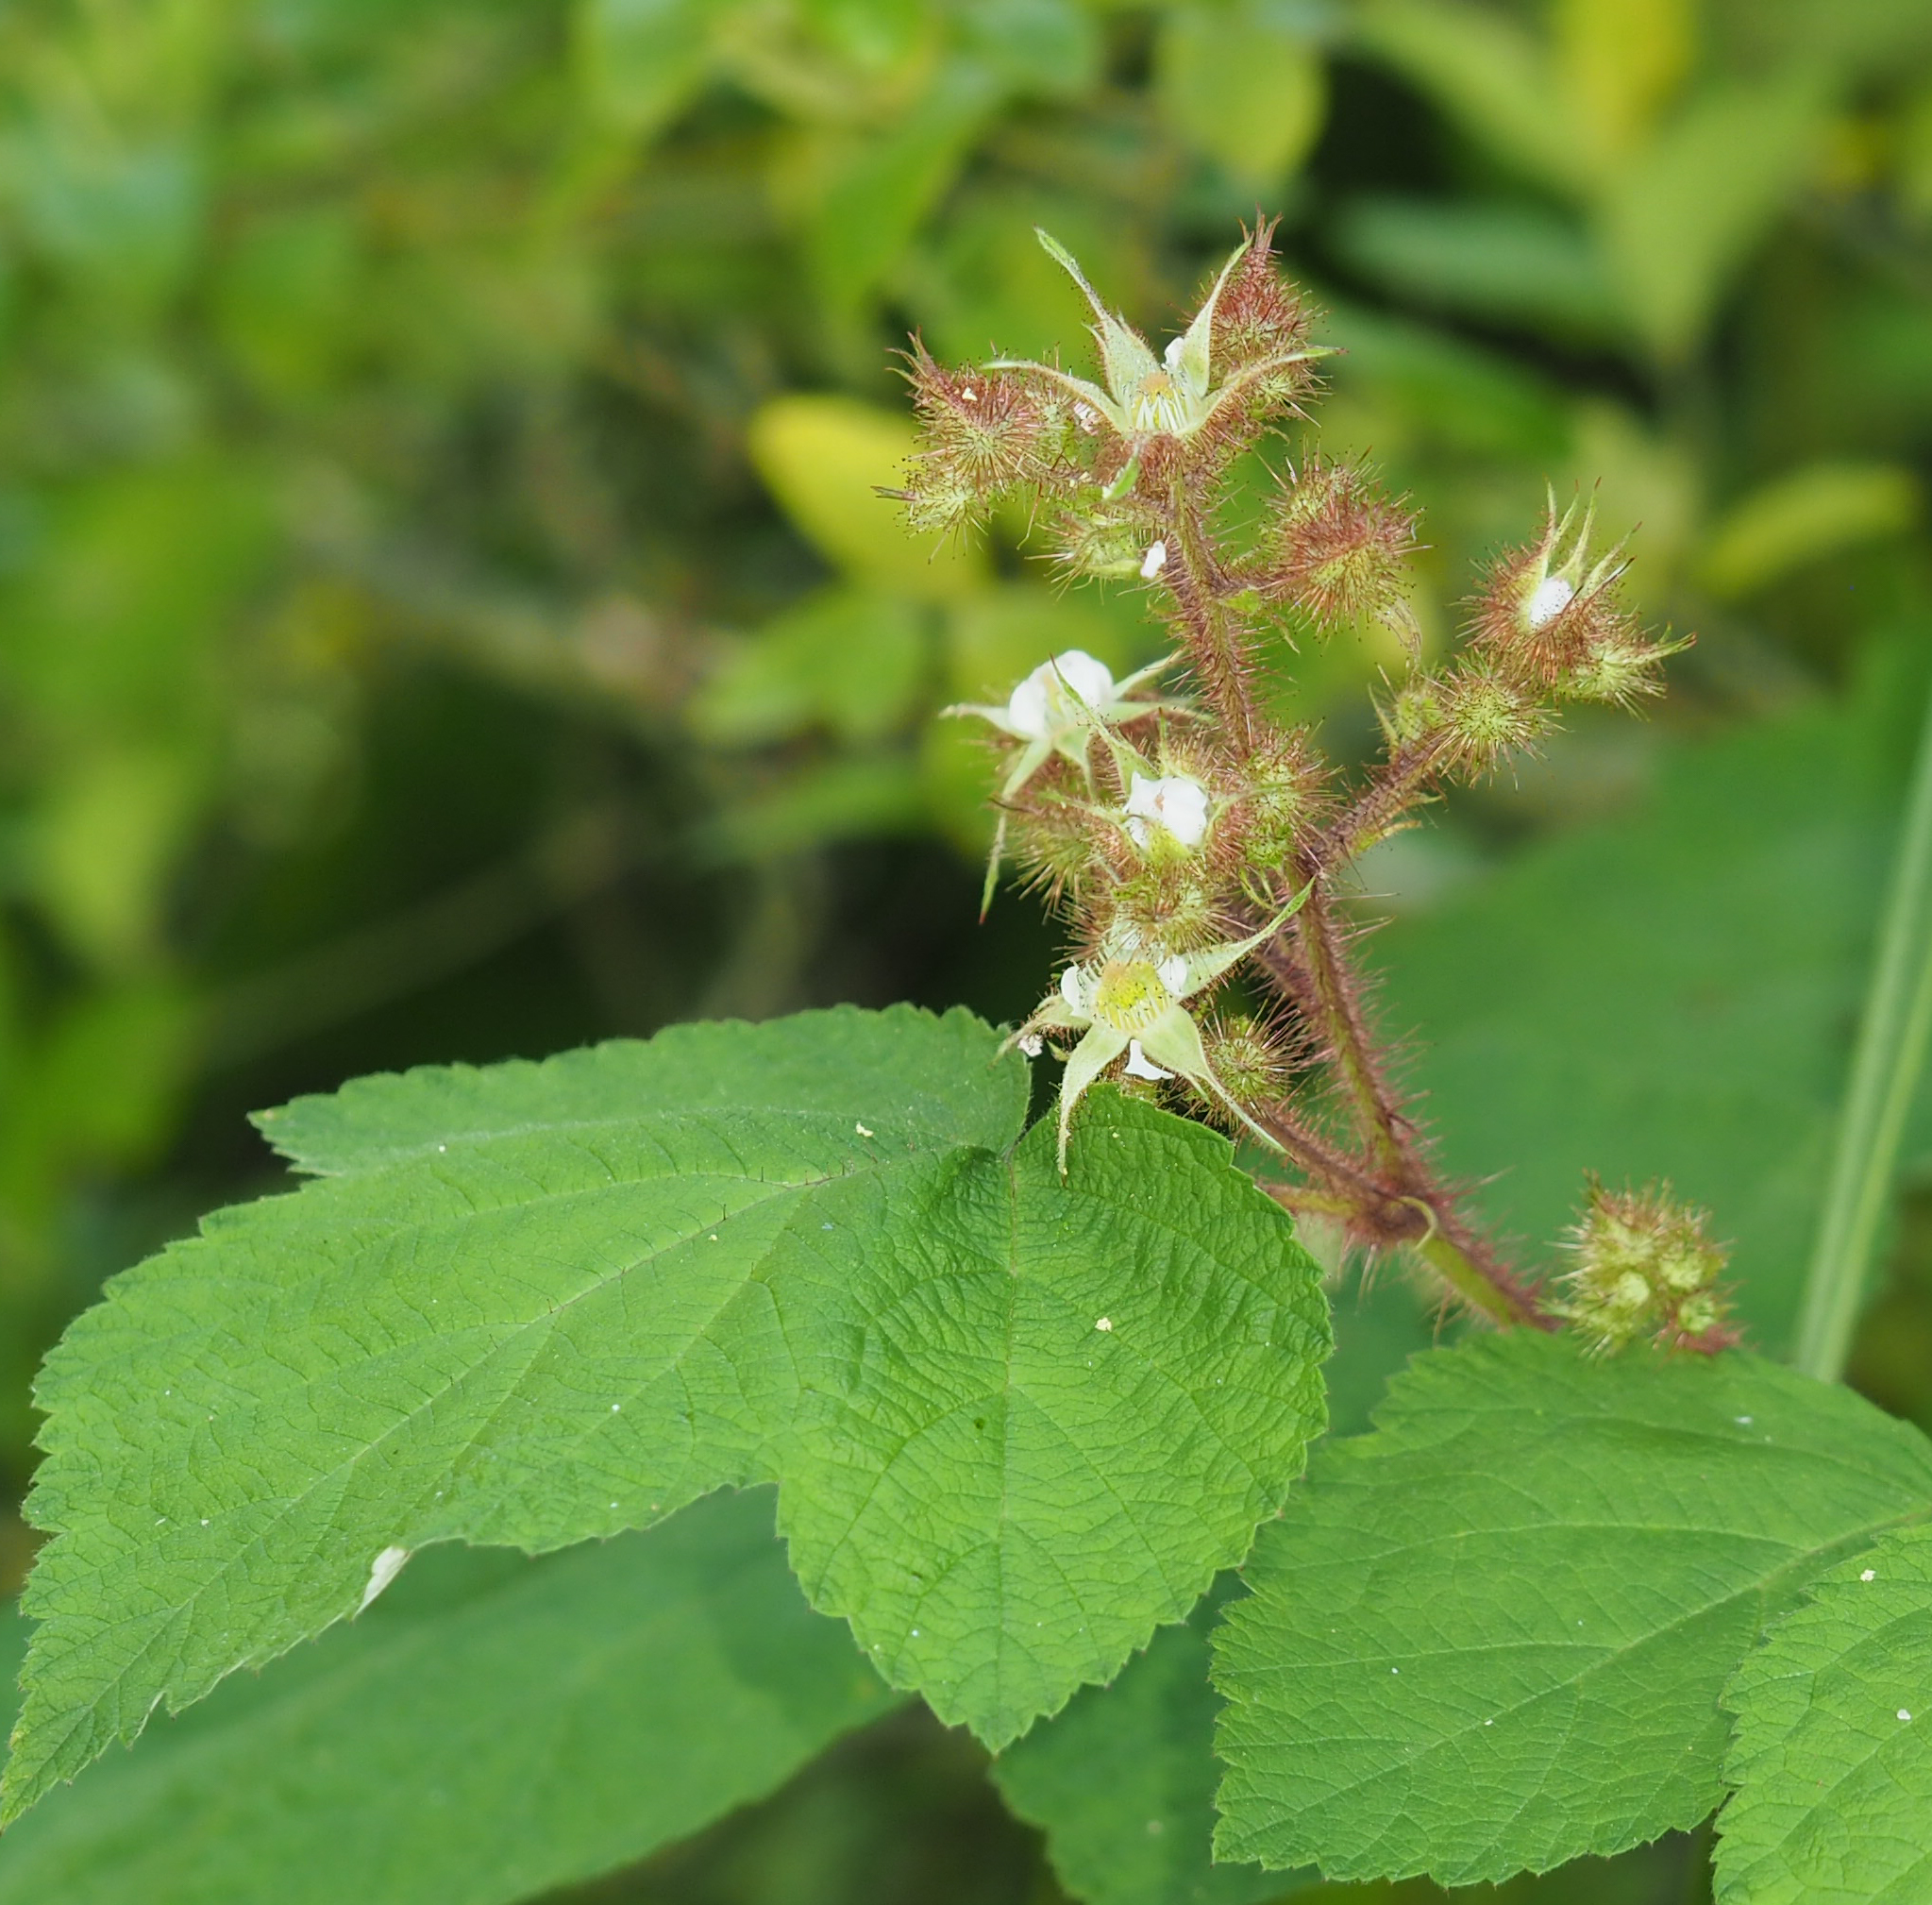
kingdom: Plantae
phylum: Tracheophyta
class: Magnoliopsida
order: Rosales
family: Rosaceae
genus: Rubus
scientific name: Rubus phoenicolasius
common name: Japanese wineberry
